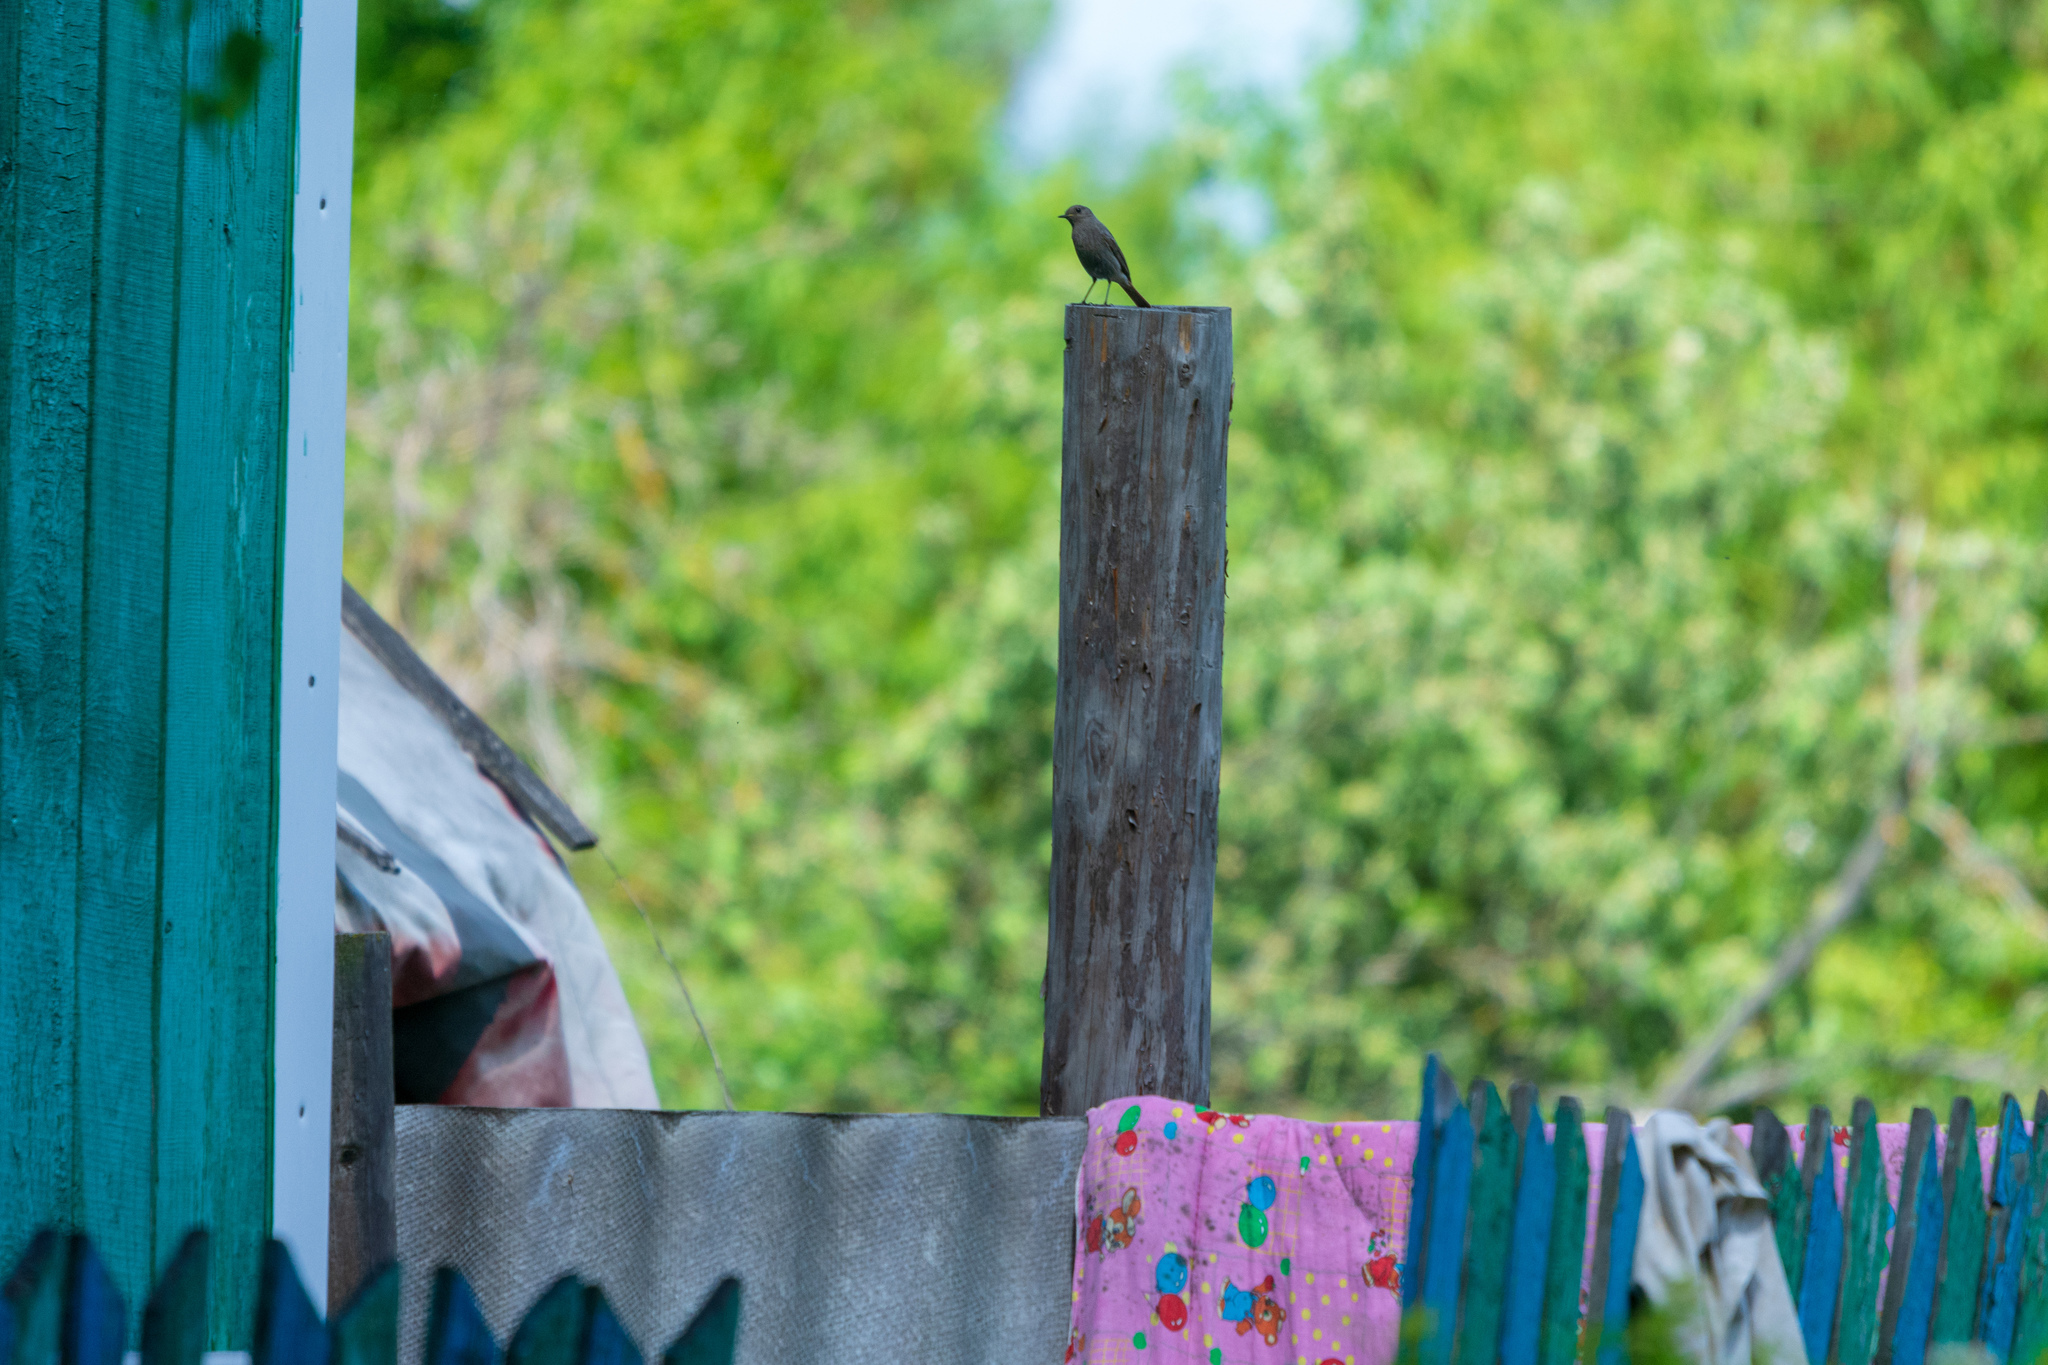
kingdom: Animalia
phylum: Chordata
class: Aves
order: Passeriformes
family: Muscicapidae
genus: Phoenicurus
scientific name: Phoenicurus ochruros
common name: Black redstart
